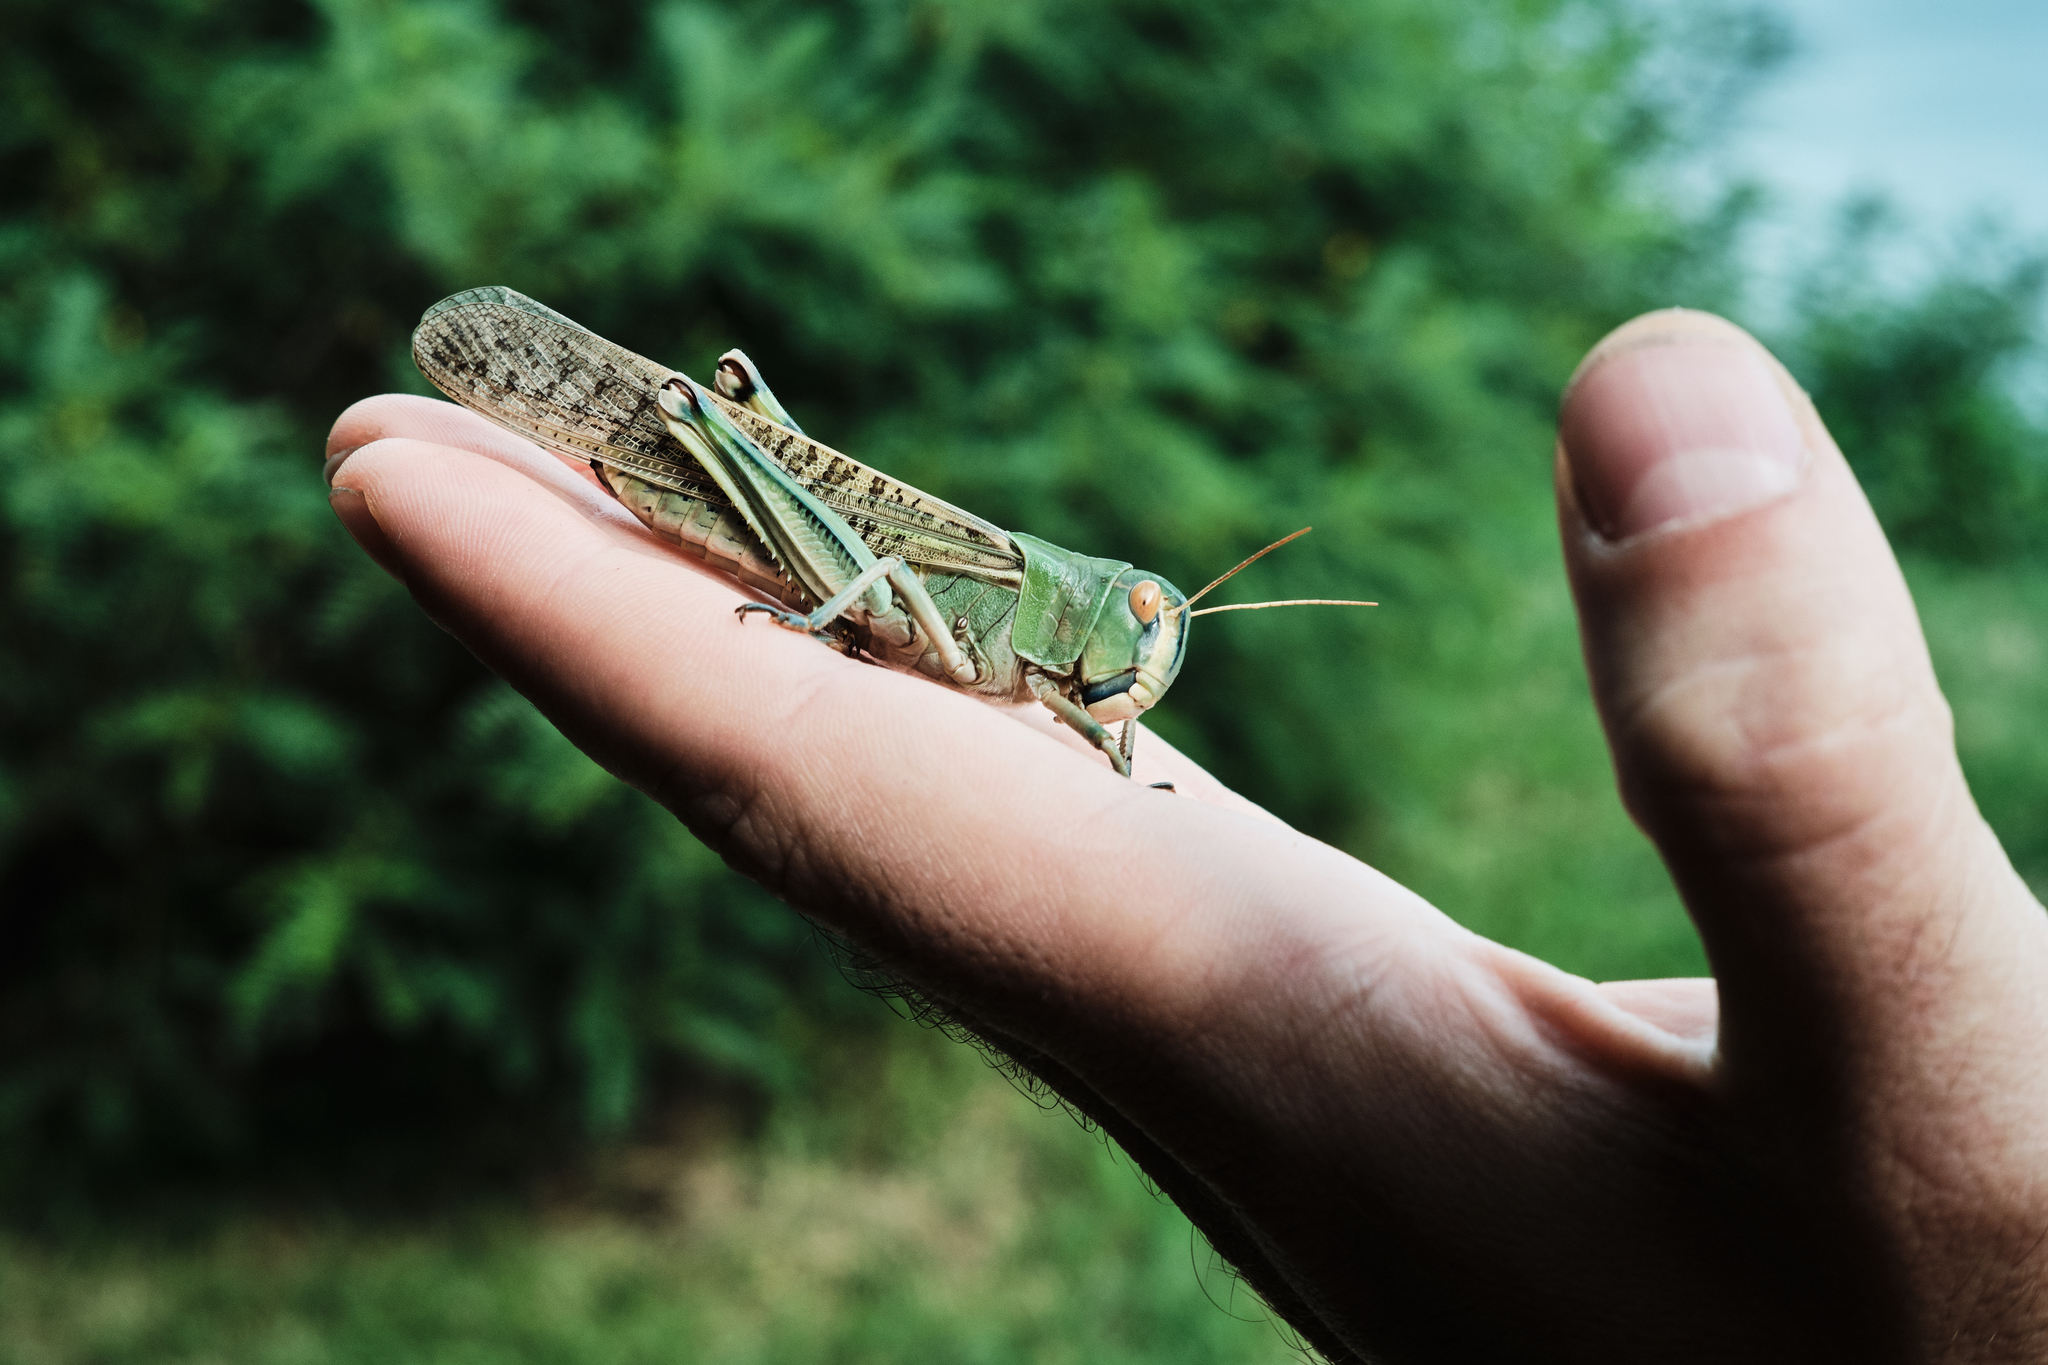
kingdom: Animalia
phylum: Arthropoda
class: Insecta
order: Orthoptera
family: Acrididae
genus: Locusta
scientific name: Locusta migratoria
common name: Migratory locust
